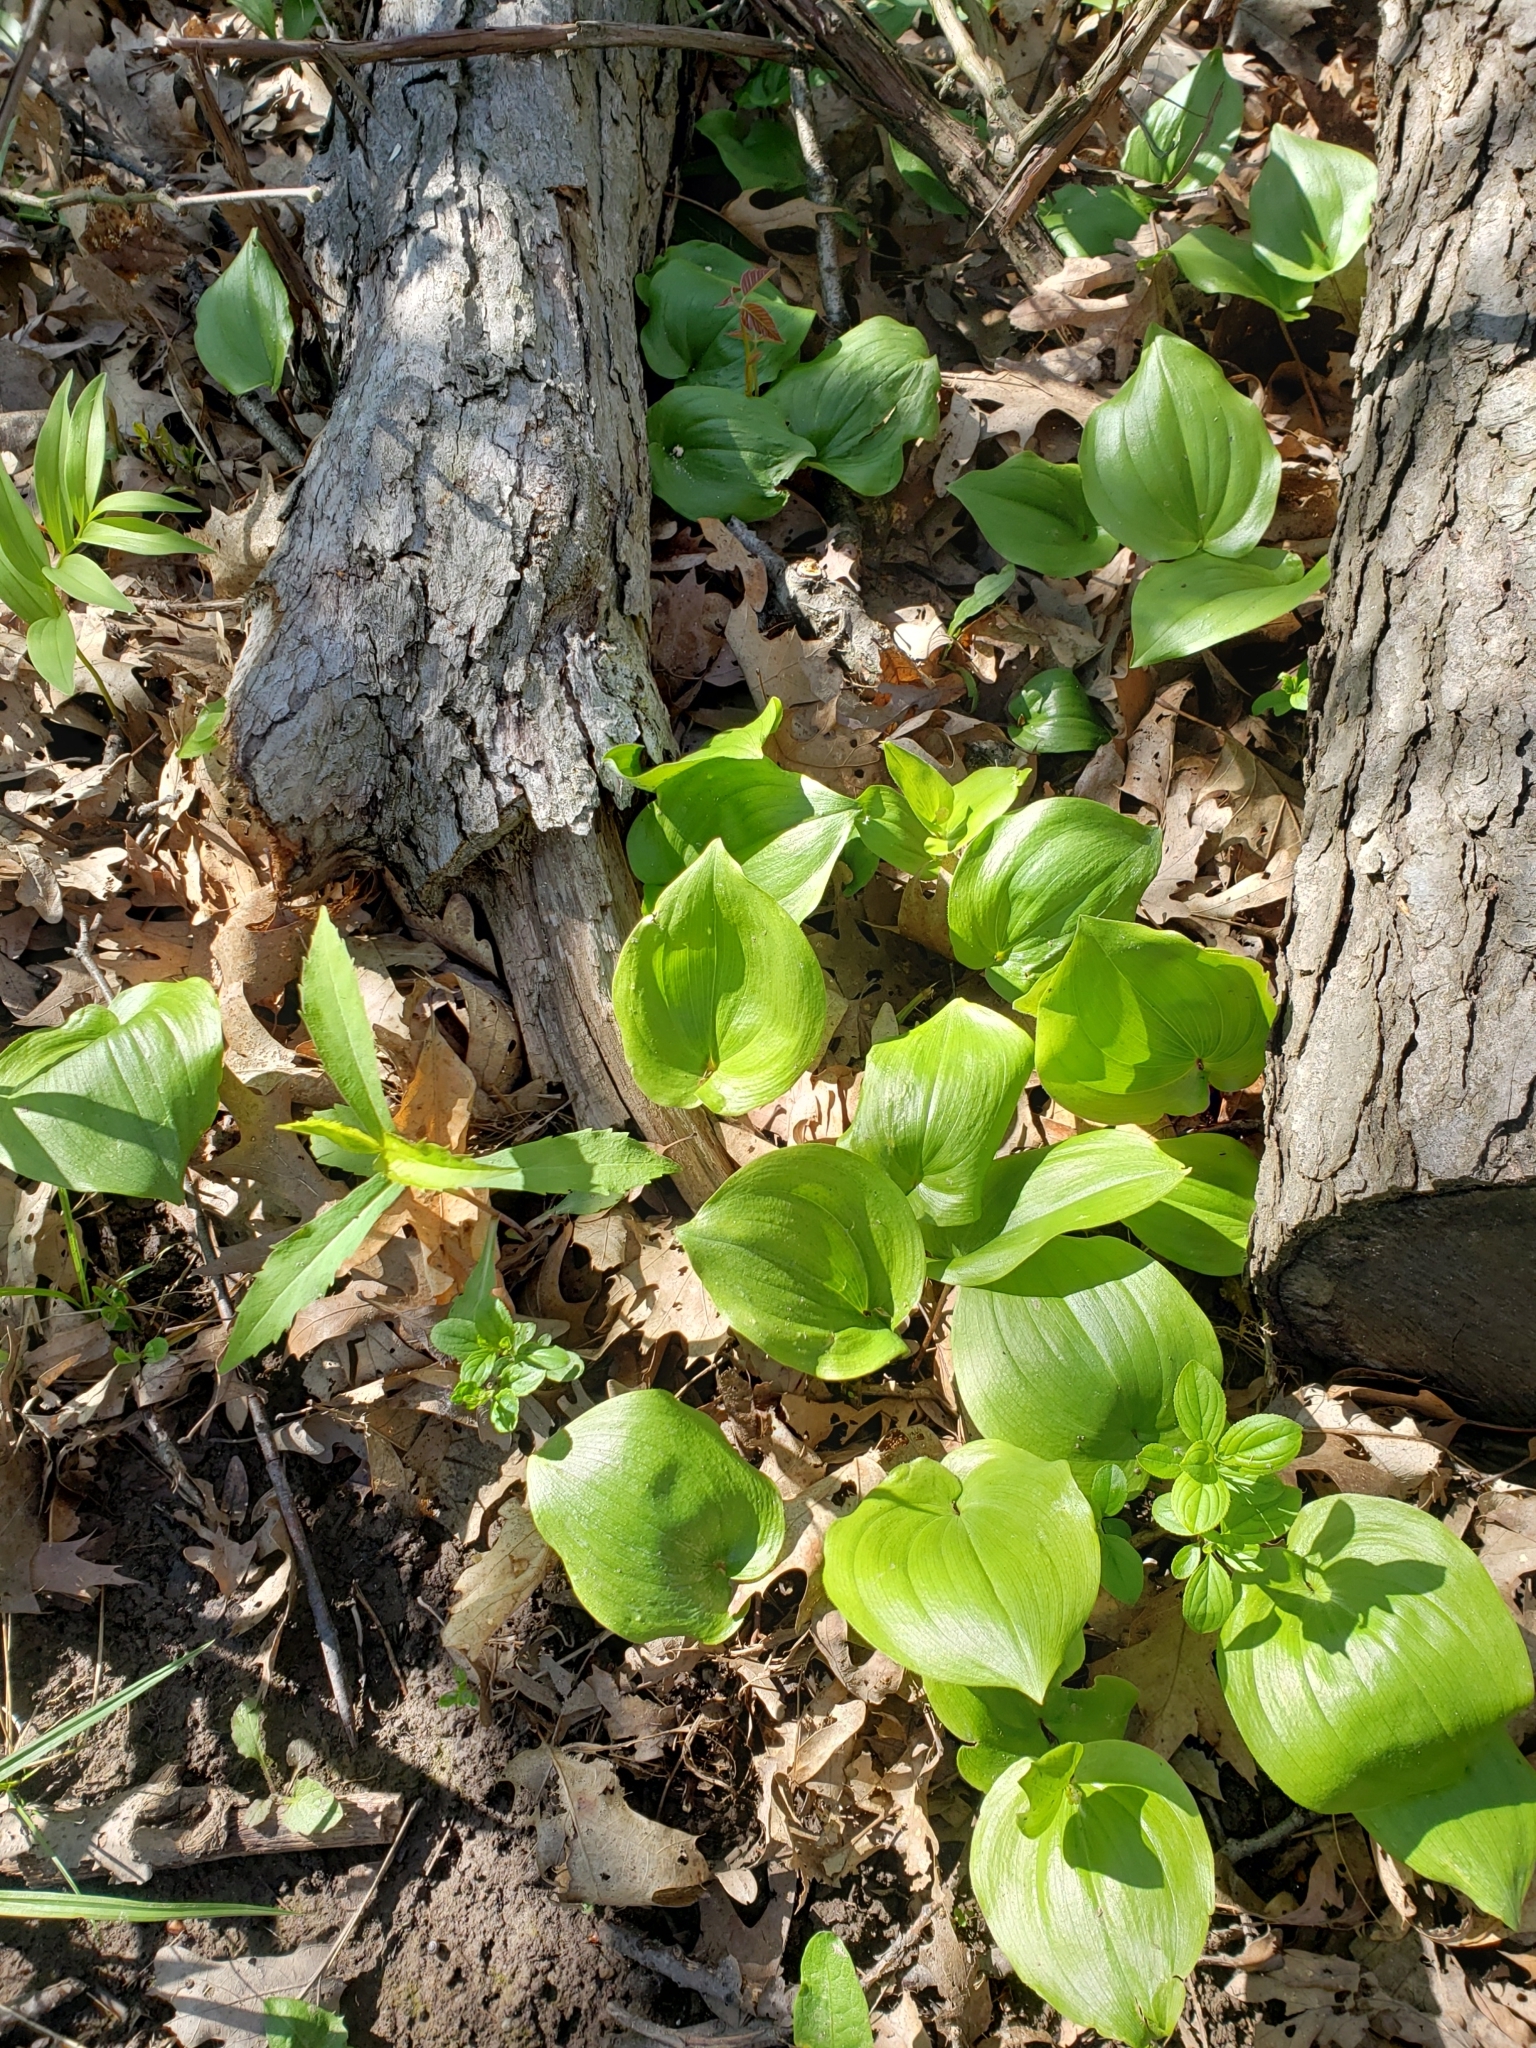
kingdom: Plantae
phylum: Tracheophyta
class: Liliopsida
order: Asparagales
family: Asparagaceae
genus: Maianthemum
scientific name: Maianthemum canadense
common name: False lily-of-the-valley
